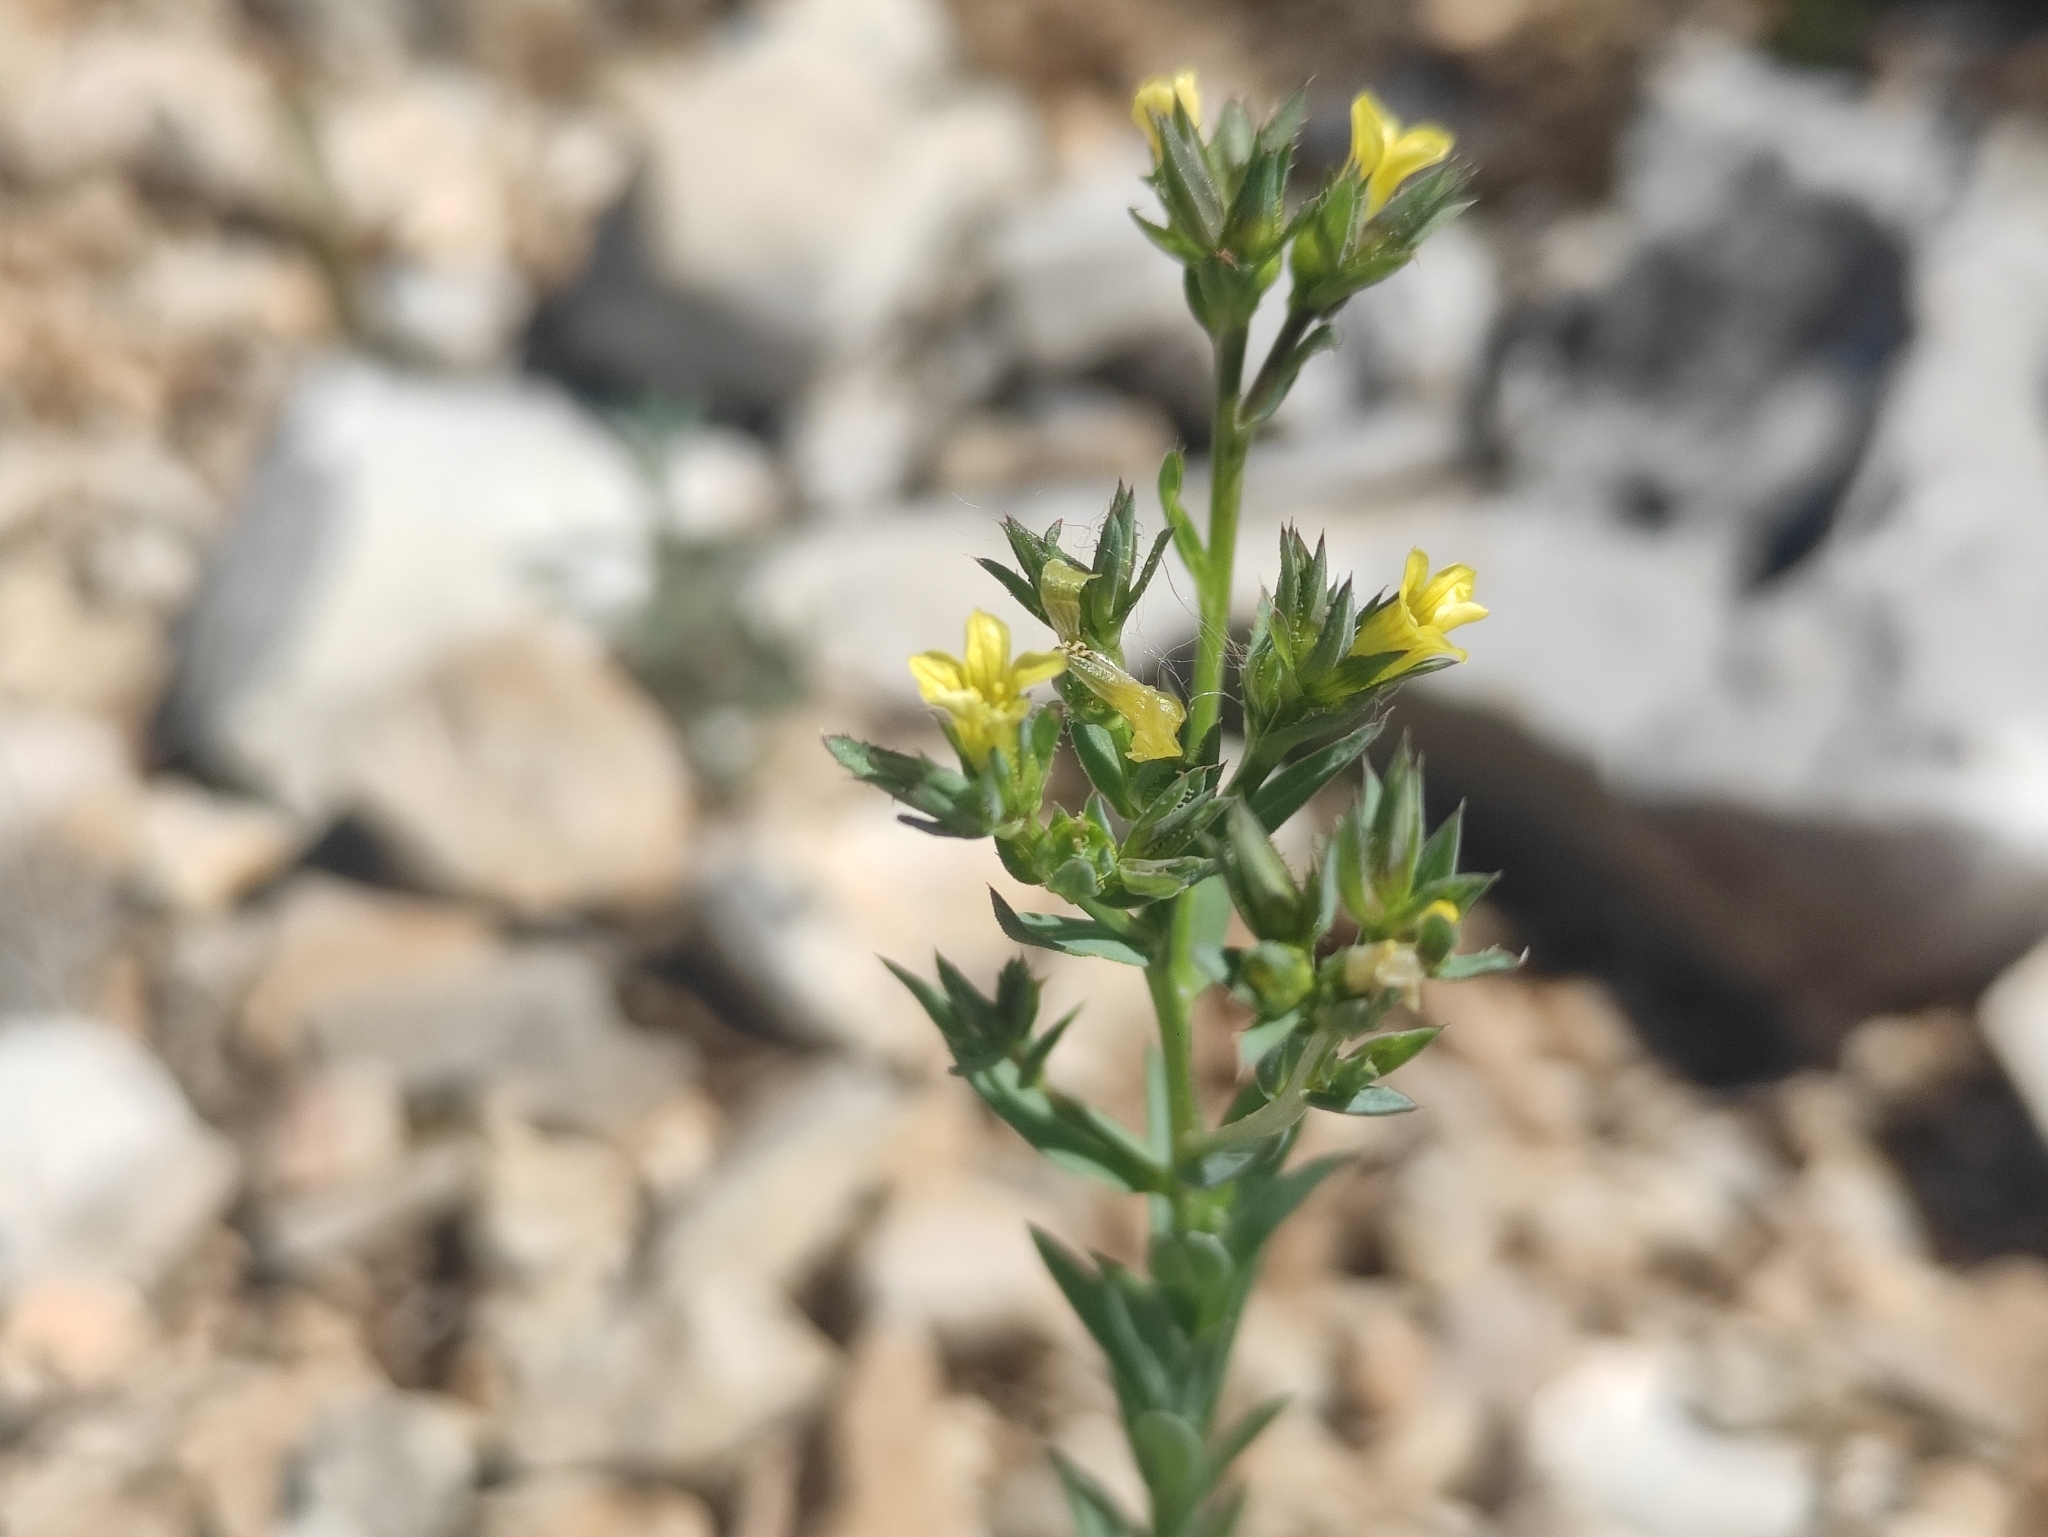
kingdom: Plantae
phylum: Tracheophyta
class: Magnoliopsida
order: Malpighiales
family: Linaceae
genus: Linum
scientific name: Linum strictum
